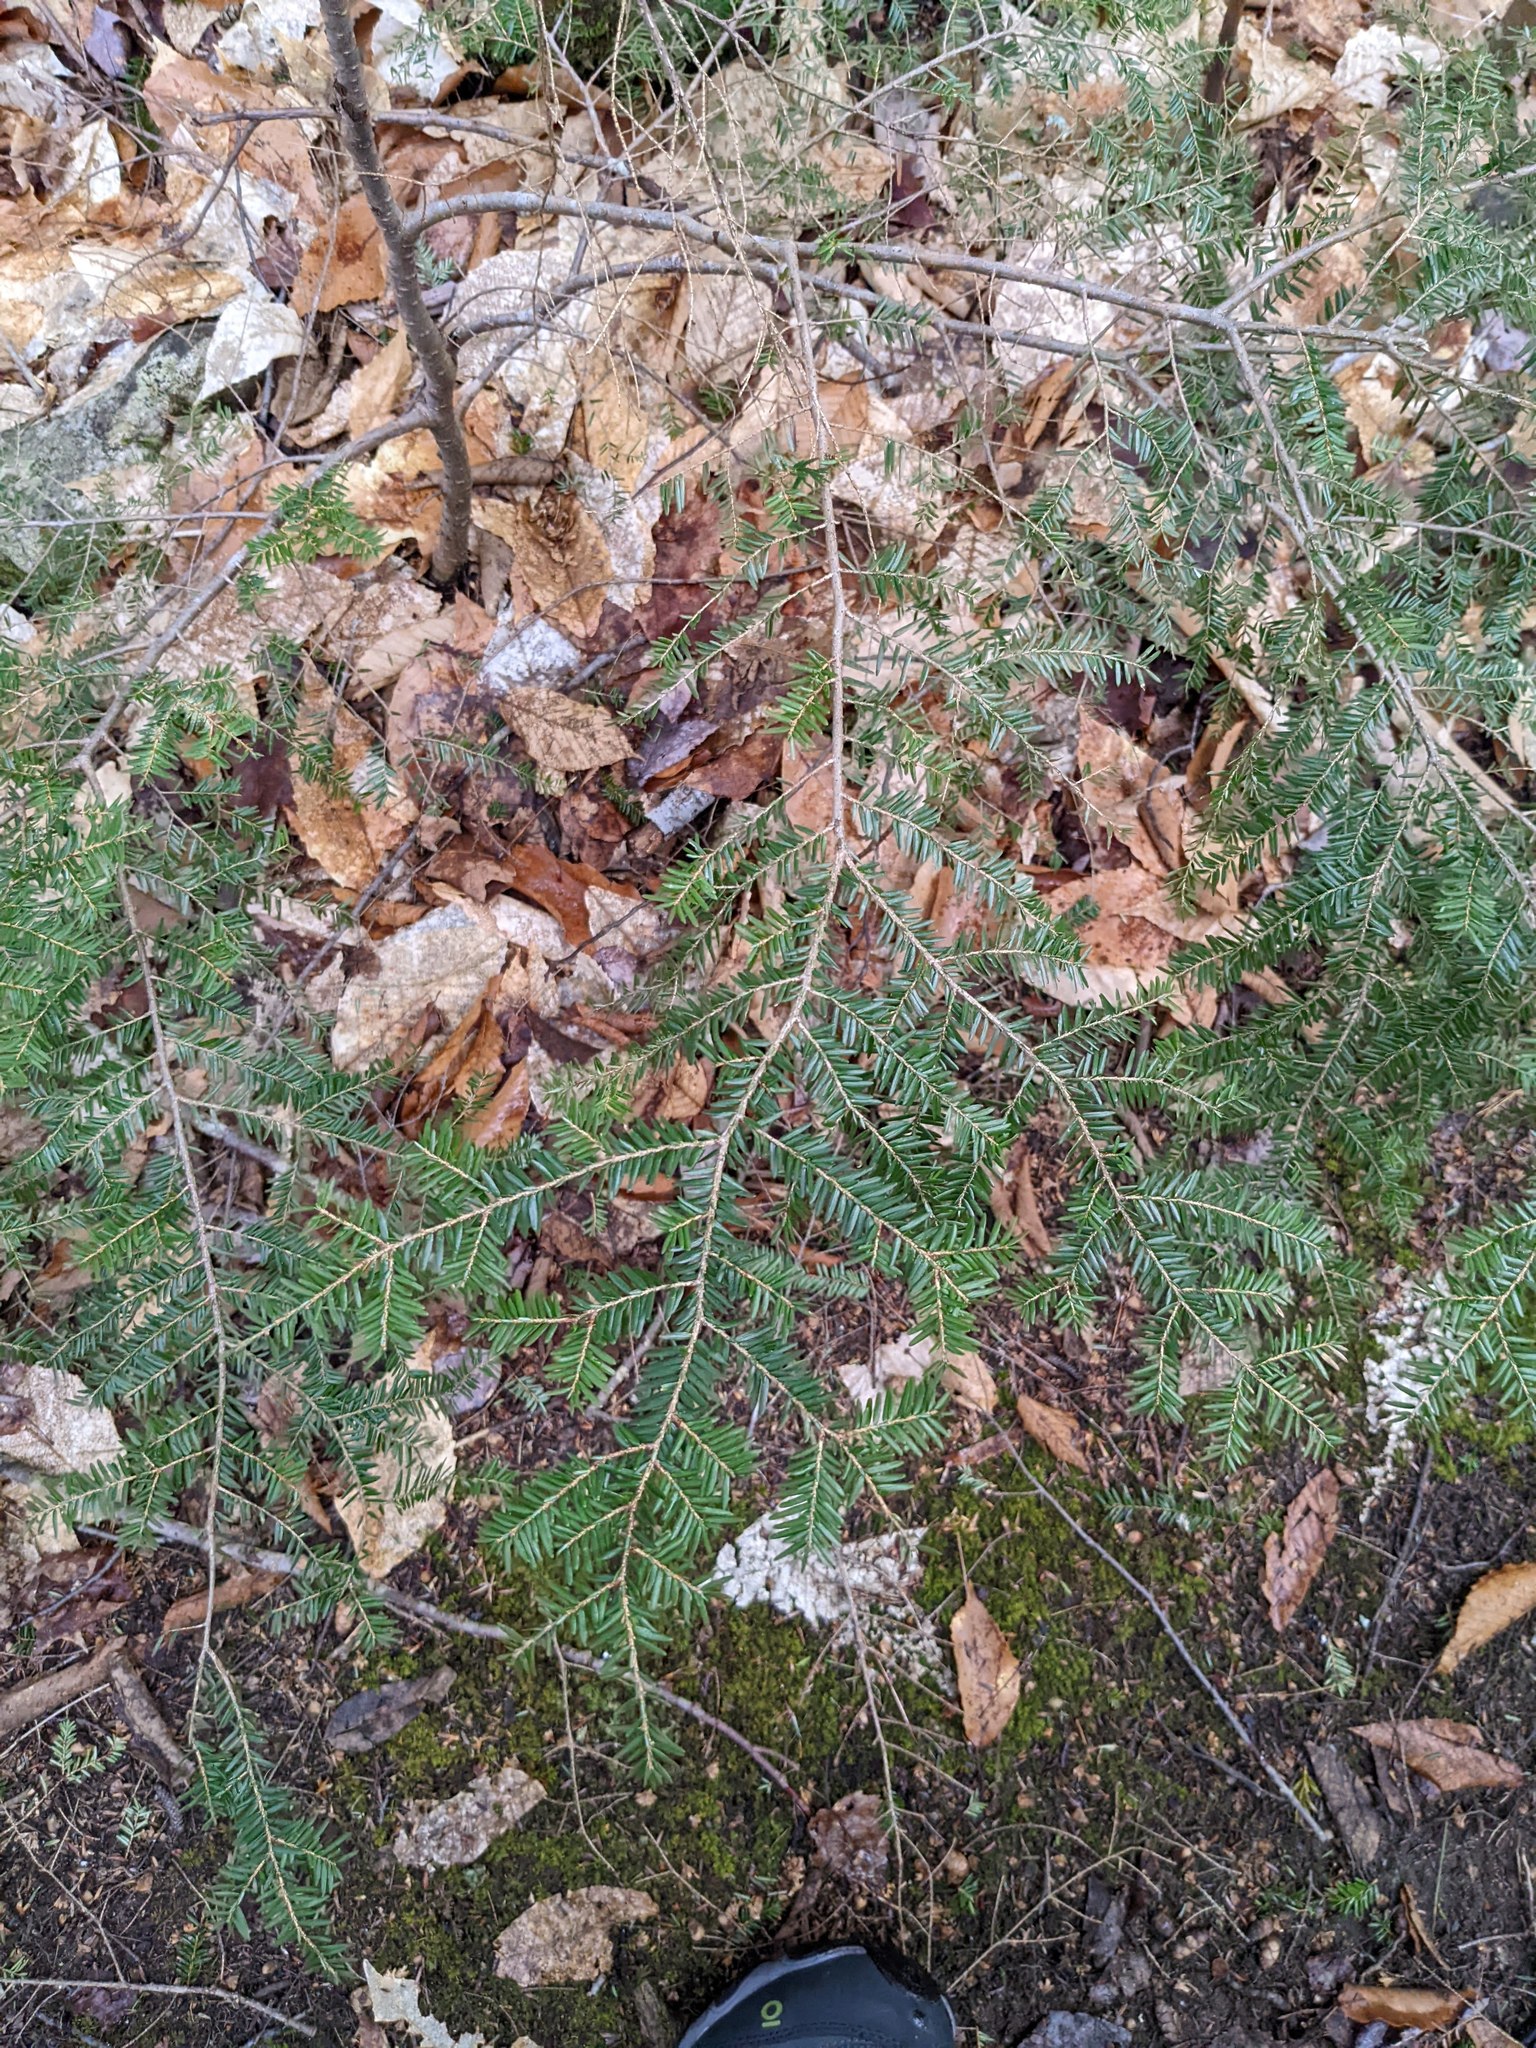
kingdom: Plantae
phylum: Tracheophyta
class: Pinopsida
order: Pinales
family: Pinaceae
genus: Tsuga
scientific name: Tsuga canadensis
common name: Eastern hemlock
